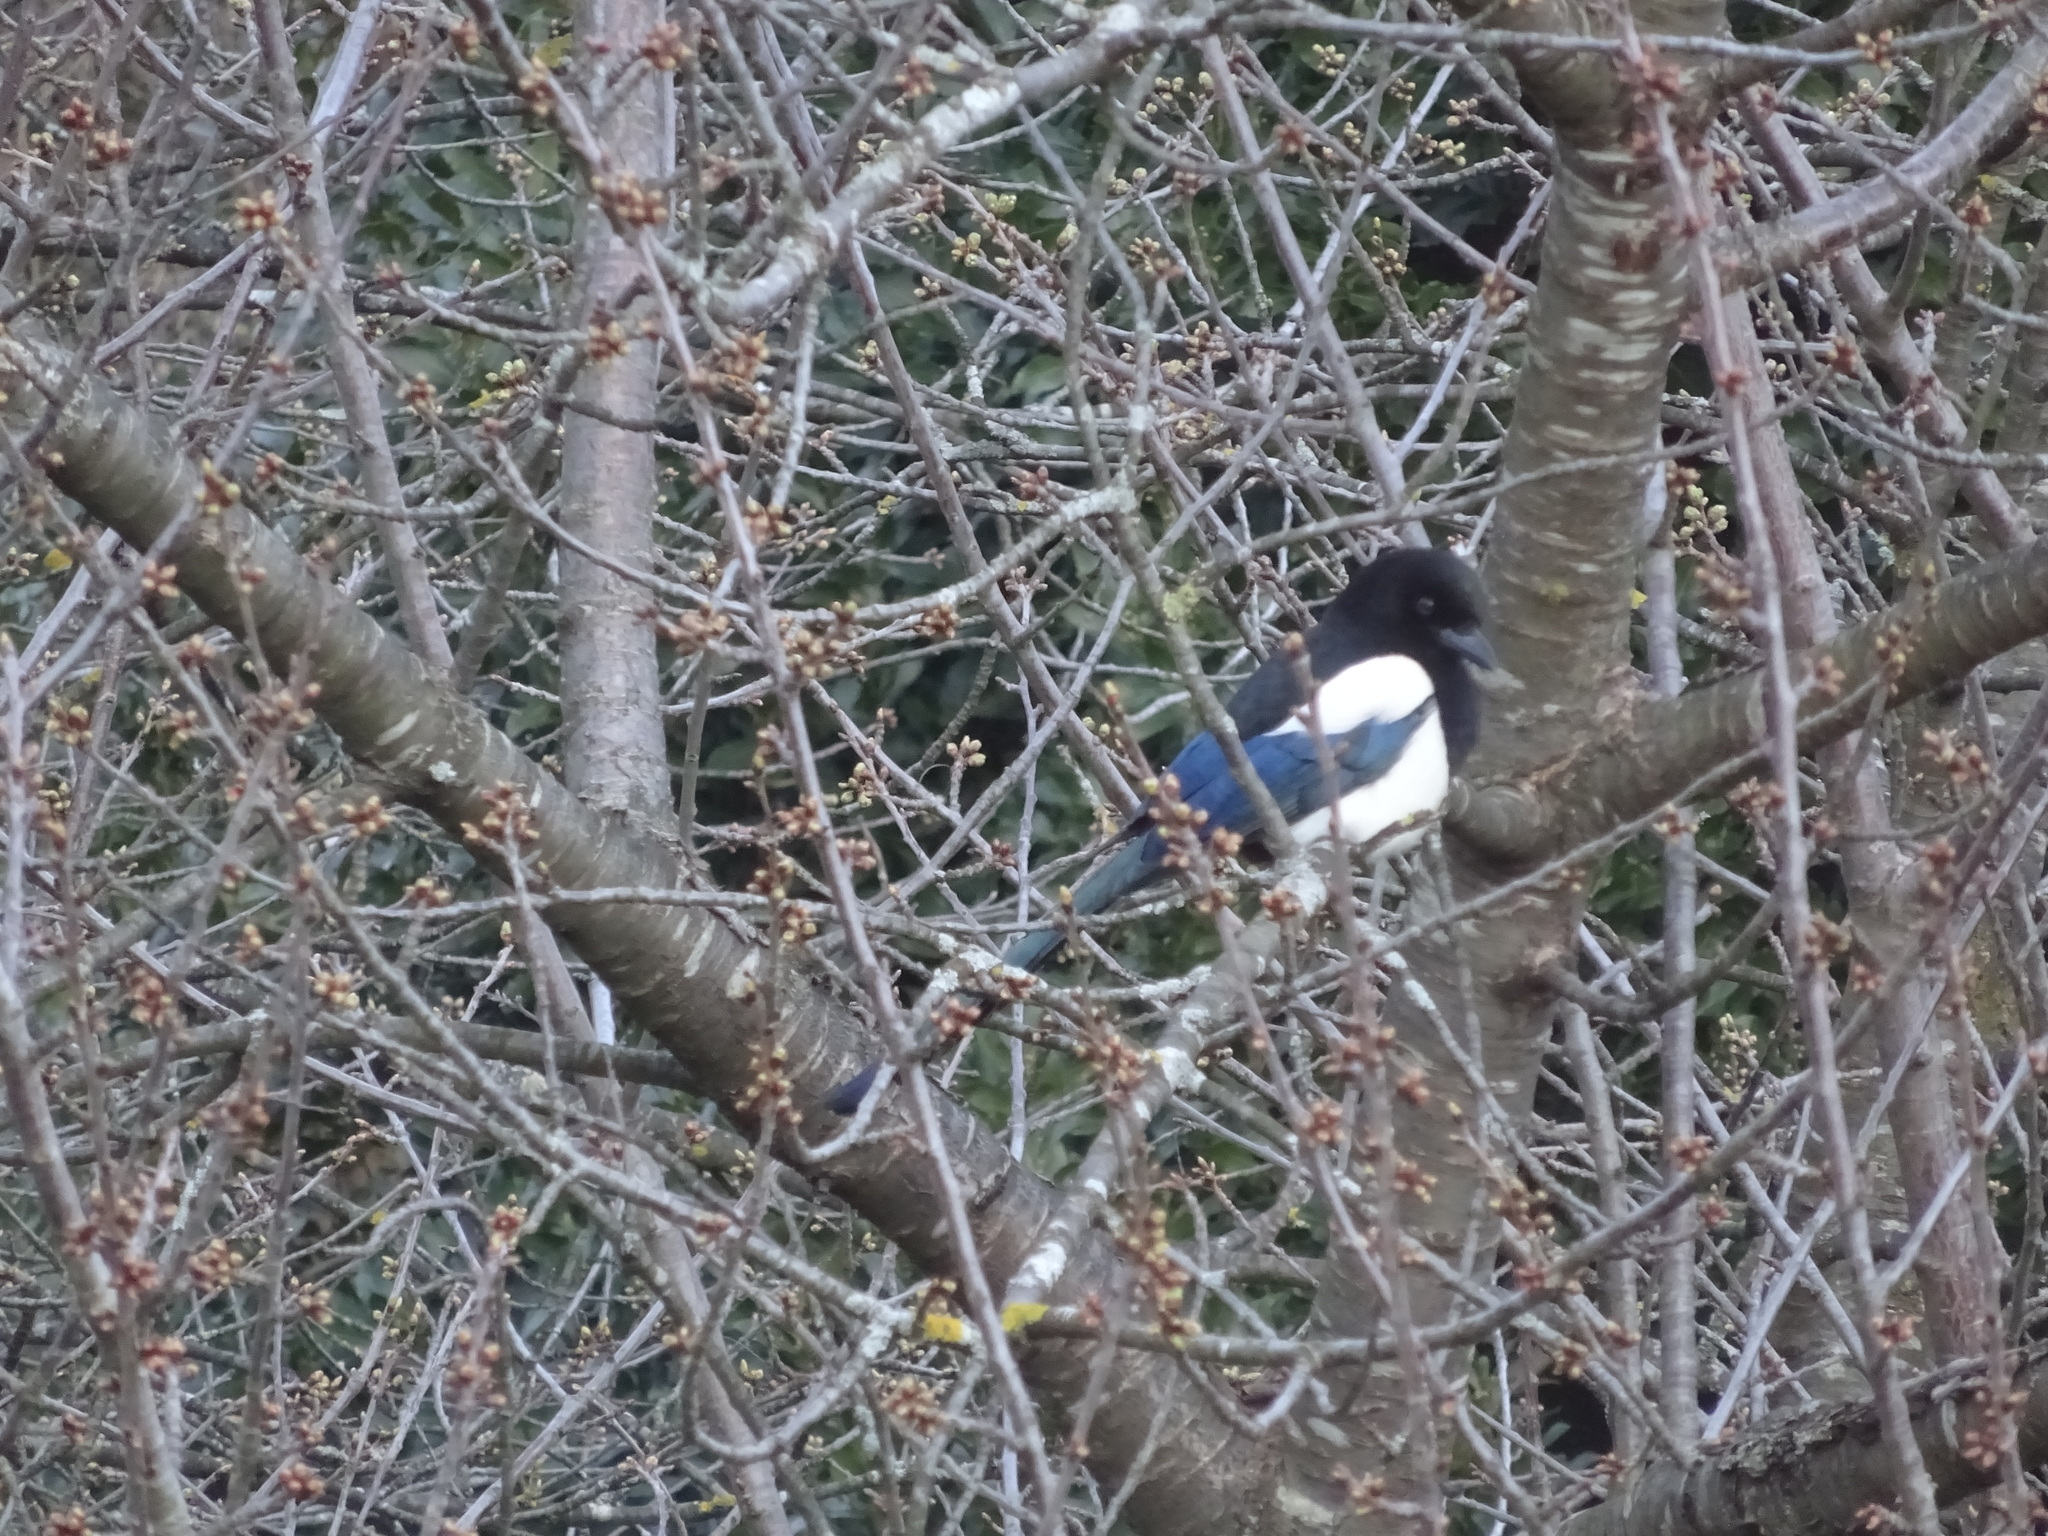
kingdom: Animalia
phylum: Chordata
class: Aves
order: Passeriformes
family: Corvidae
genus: Pica
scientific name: Pica pica
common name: Eurasian magpie
